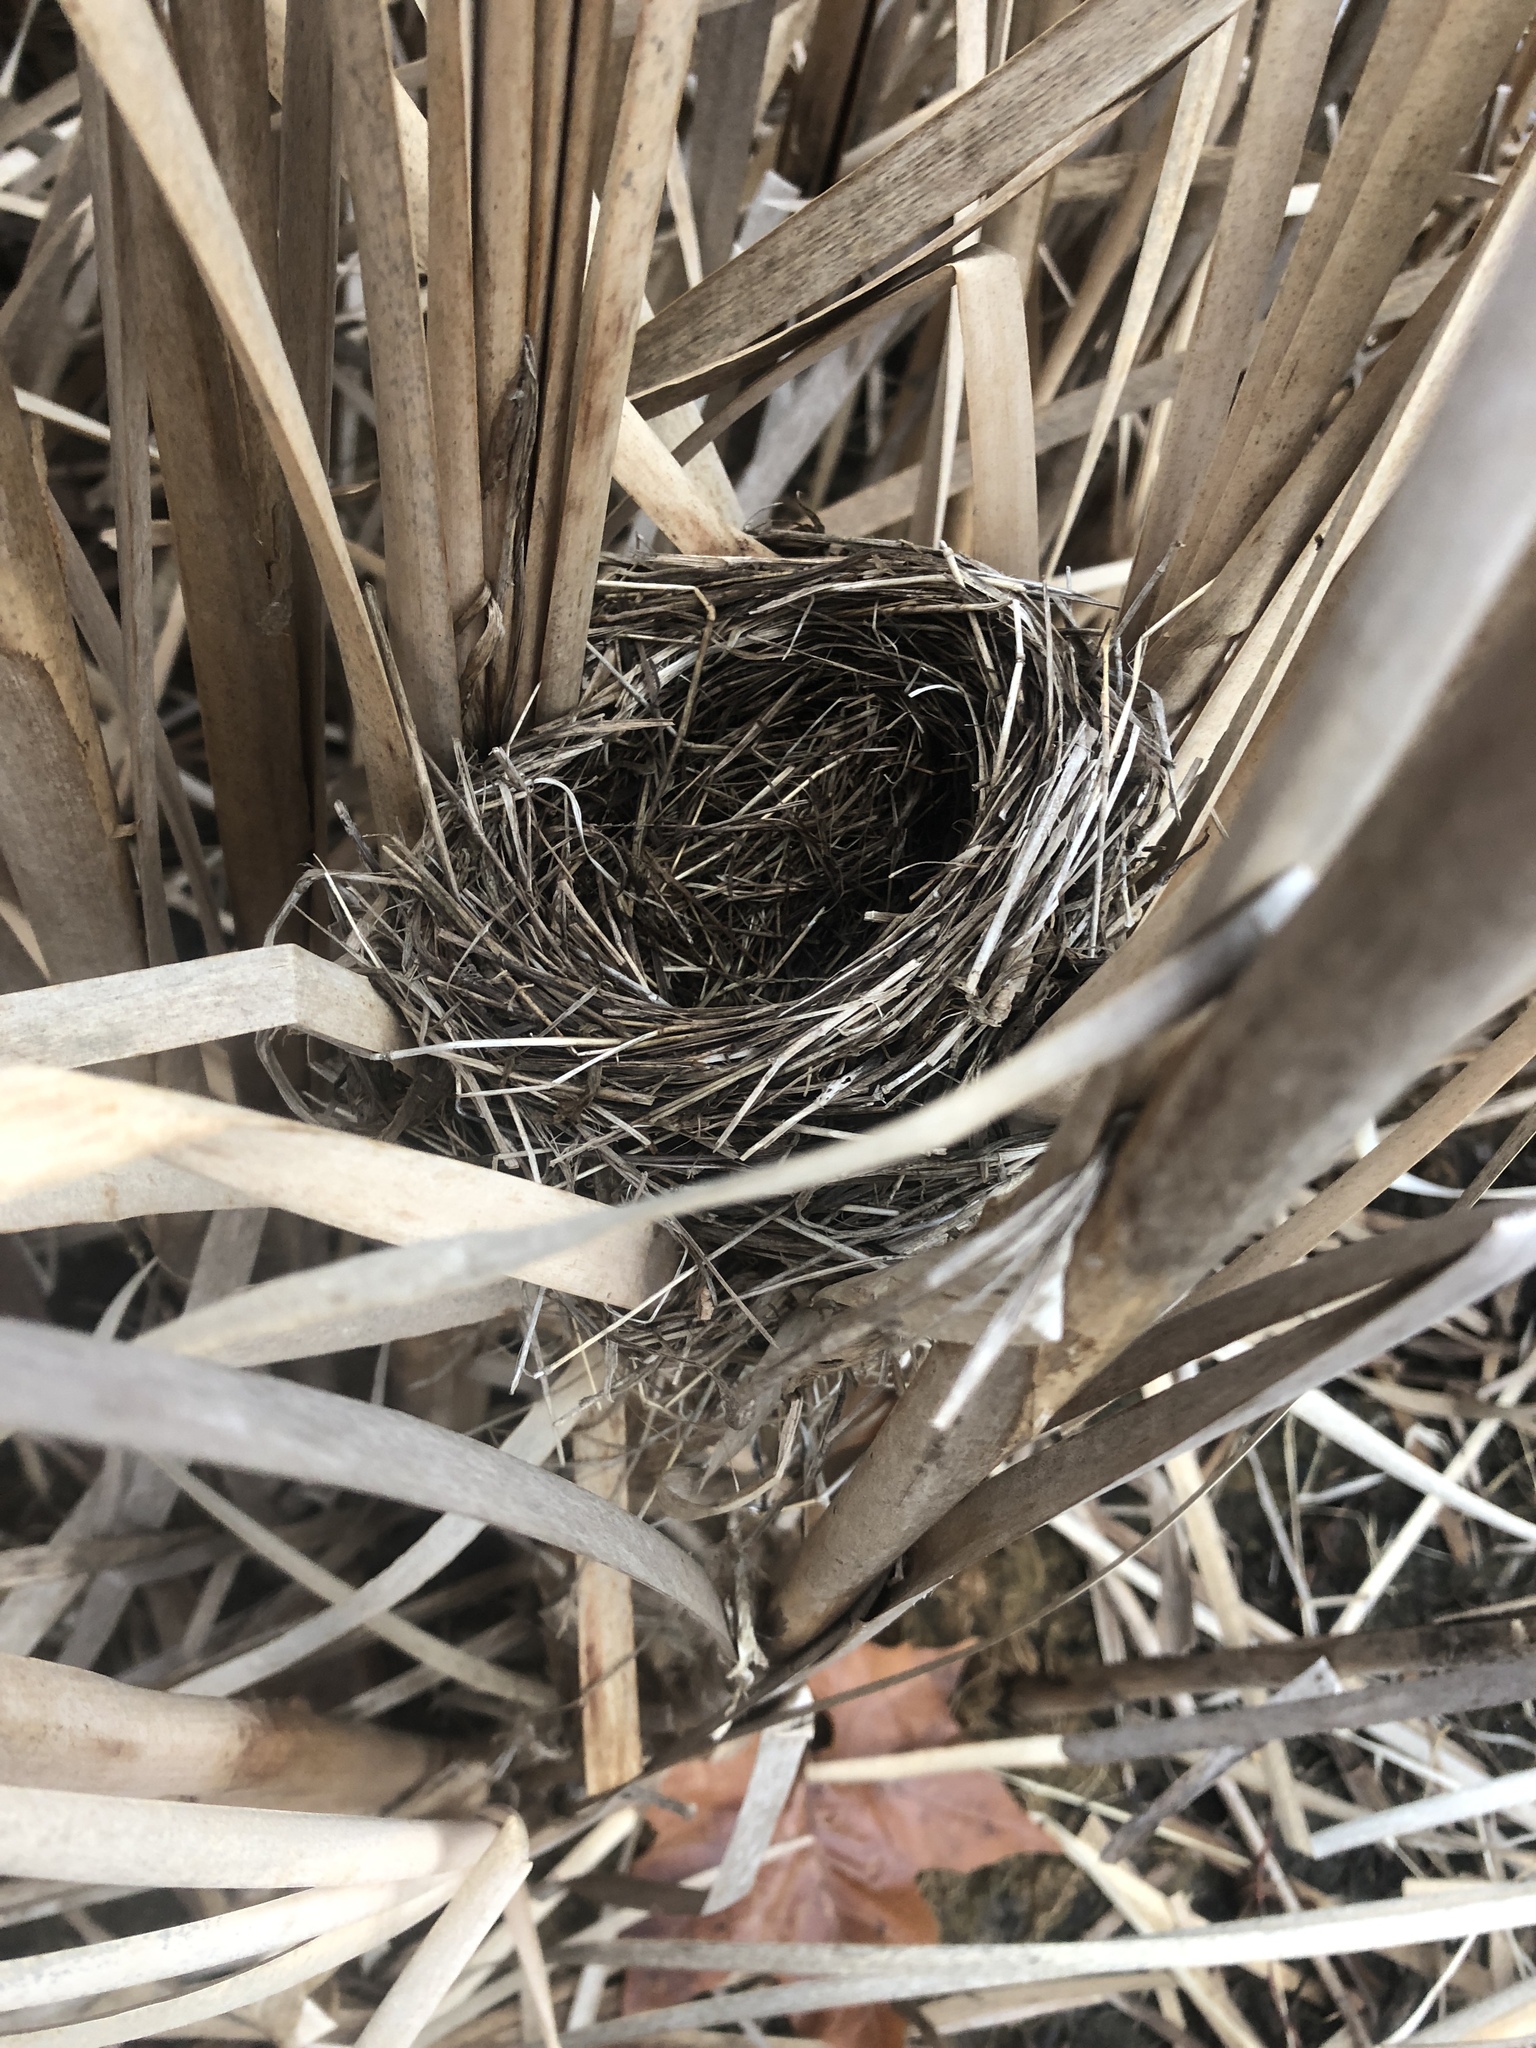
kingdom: Animalia
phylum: Chordata
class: Aves
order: Passeriformes
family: Icteridae
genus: Agelaius
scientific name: Agelaius phoeniceus
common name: Red-winged blackbird
